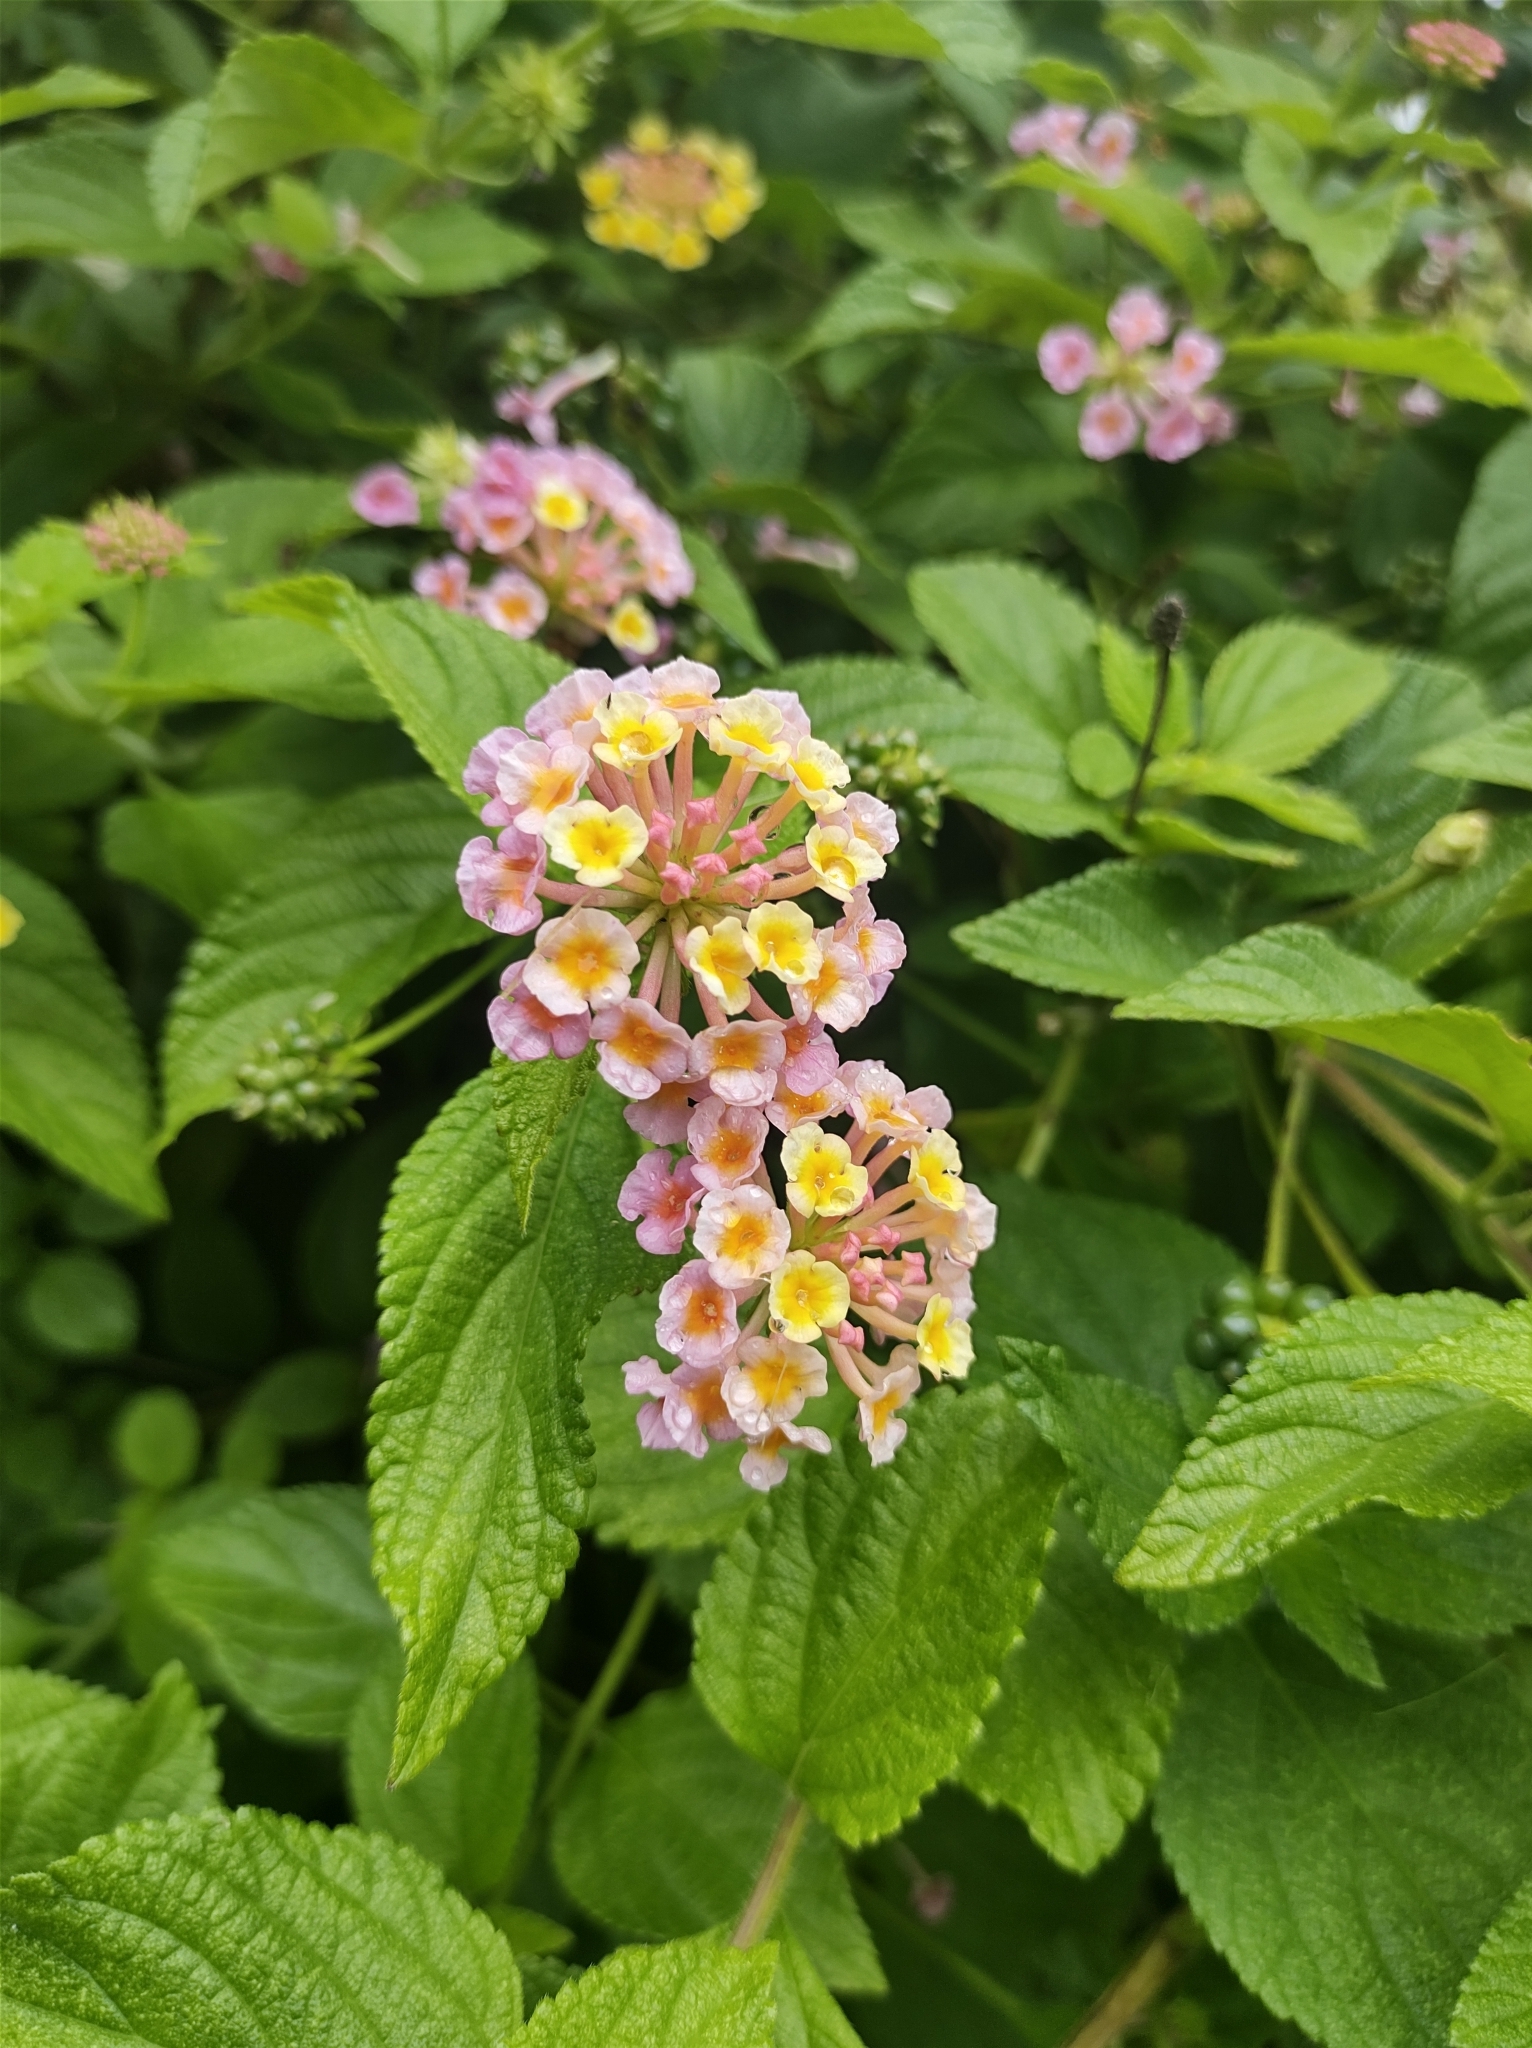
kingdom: Plantae
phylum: Tracheophyta
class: Magnoliopsida
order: Lamiales
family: Verbenaceae
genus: Lantana
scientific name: Lantana camara
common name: Lantana
